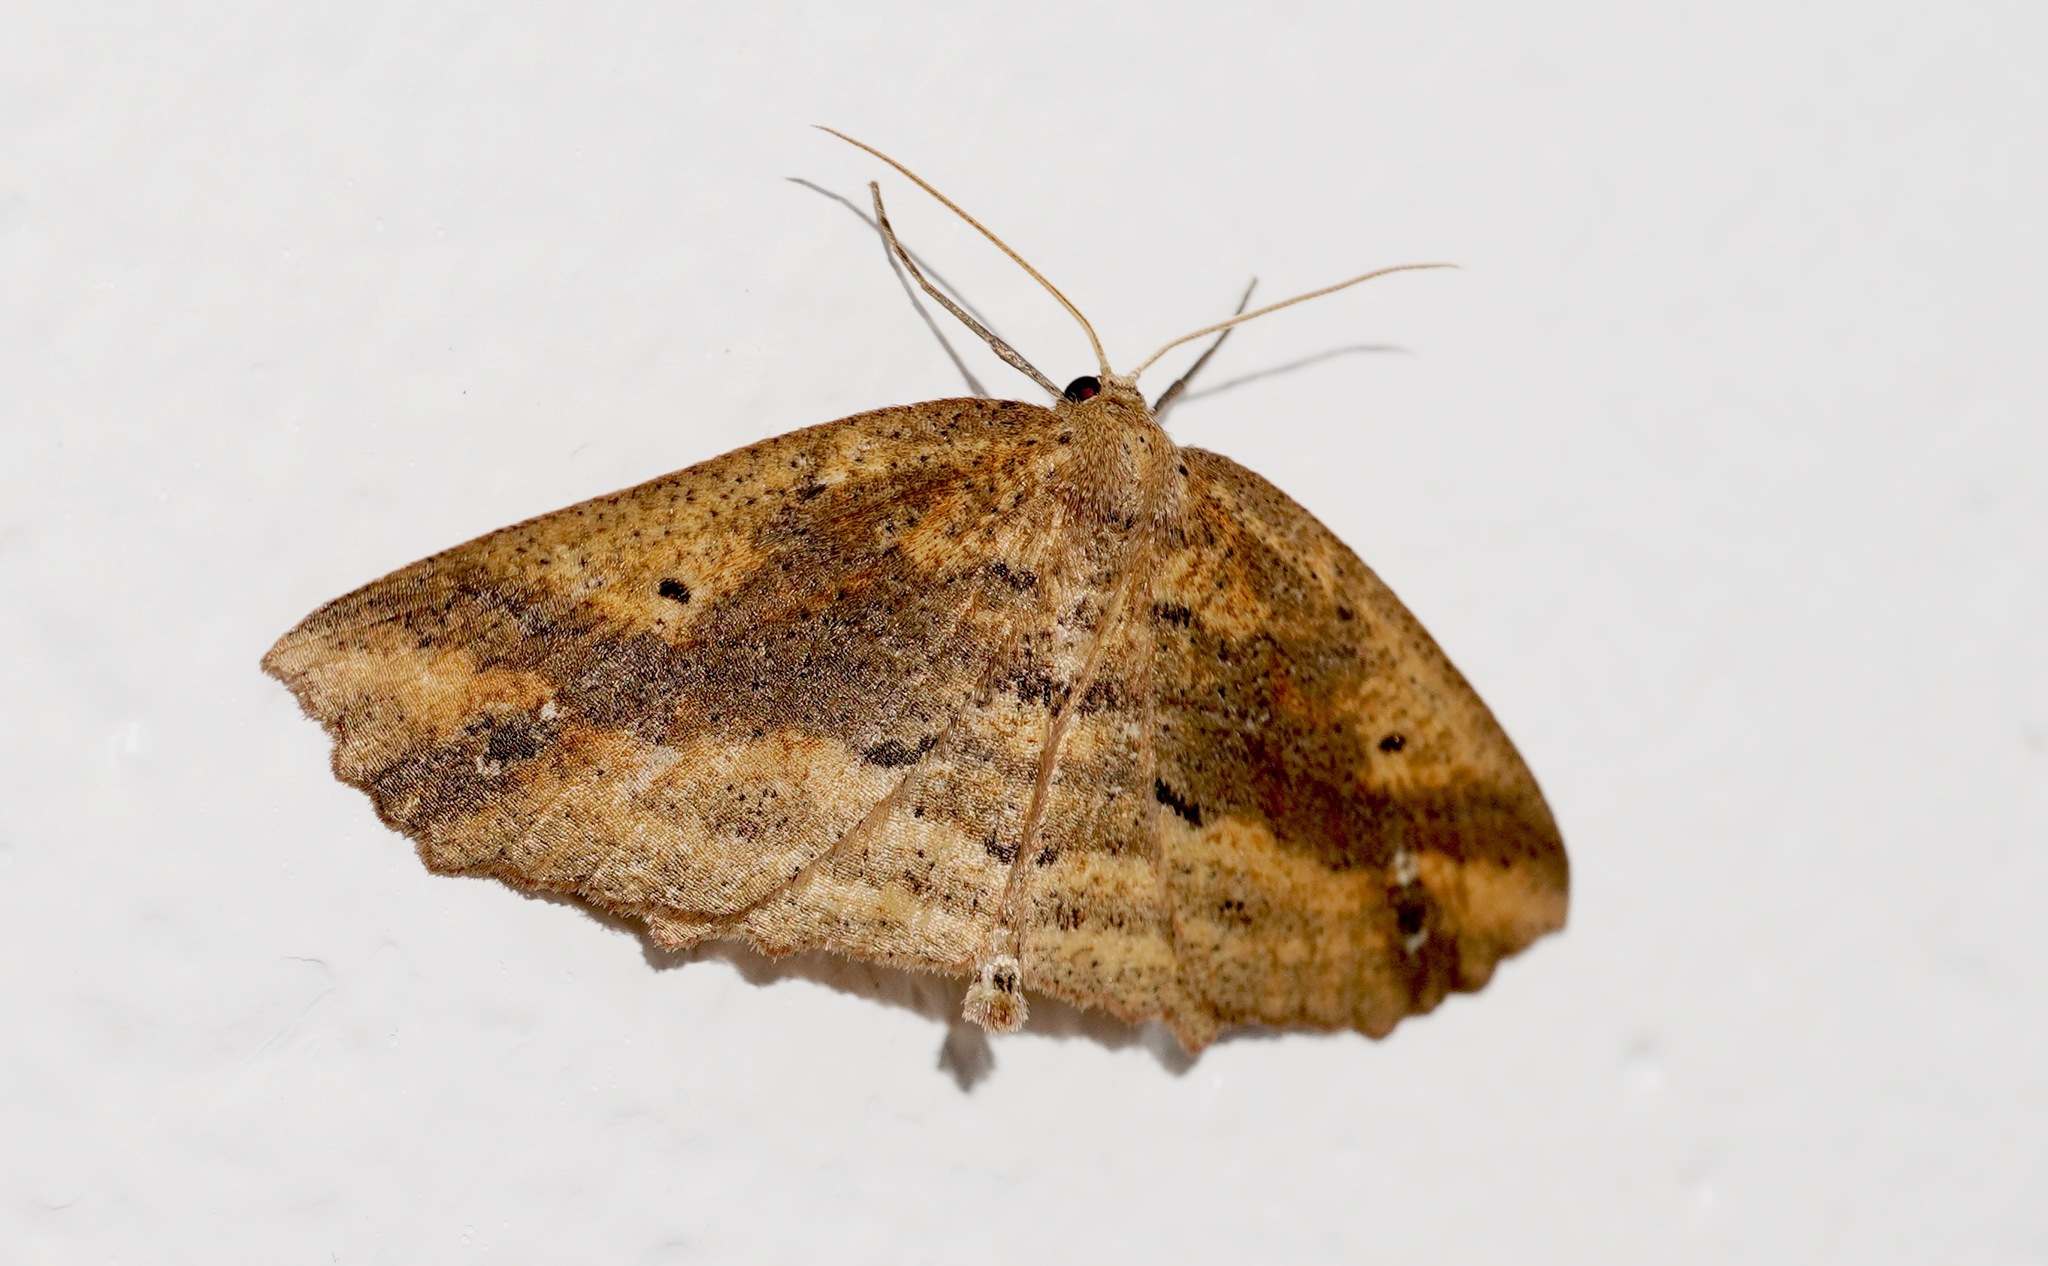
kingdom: Animalia
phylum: Arthropoda
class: Insecta
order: Lepidoptera
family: Geometridae
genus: Xyridacma
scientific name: Xyridacma veronicae
